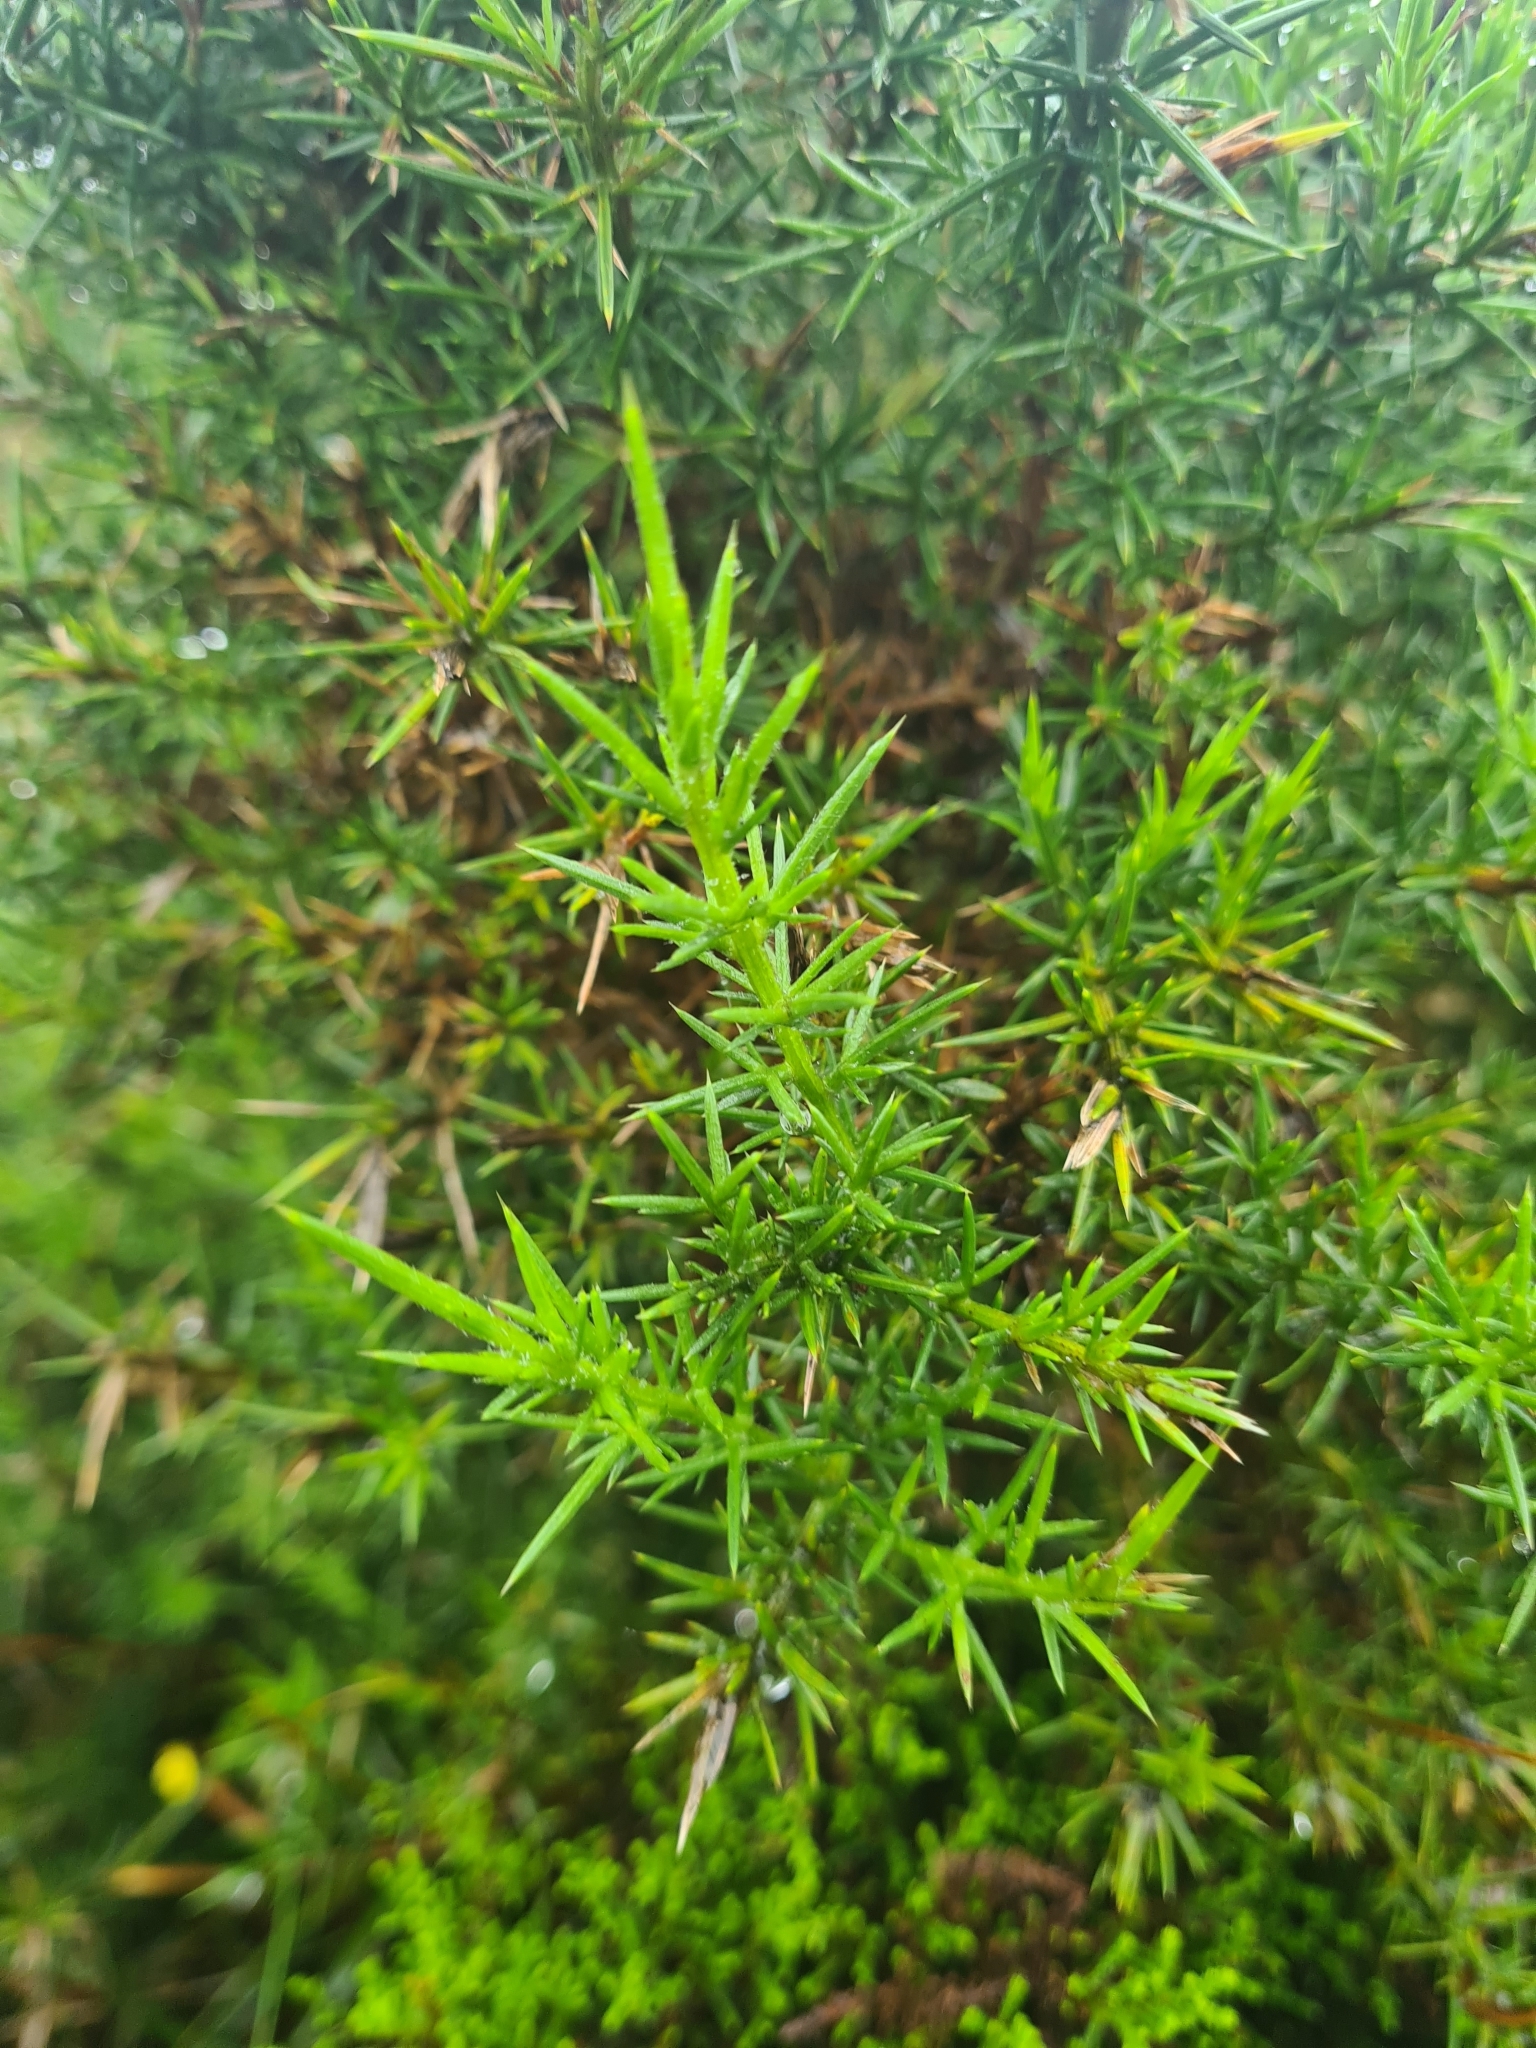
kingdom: Plantae
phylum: Tracheophyta
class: Magnoliopsida
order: Fabales
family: Fabaceae
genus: Ulex
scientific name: Ulex europaeus
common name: Common gorse
